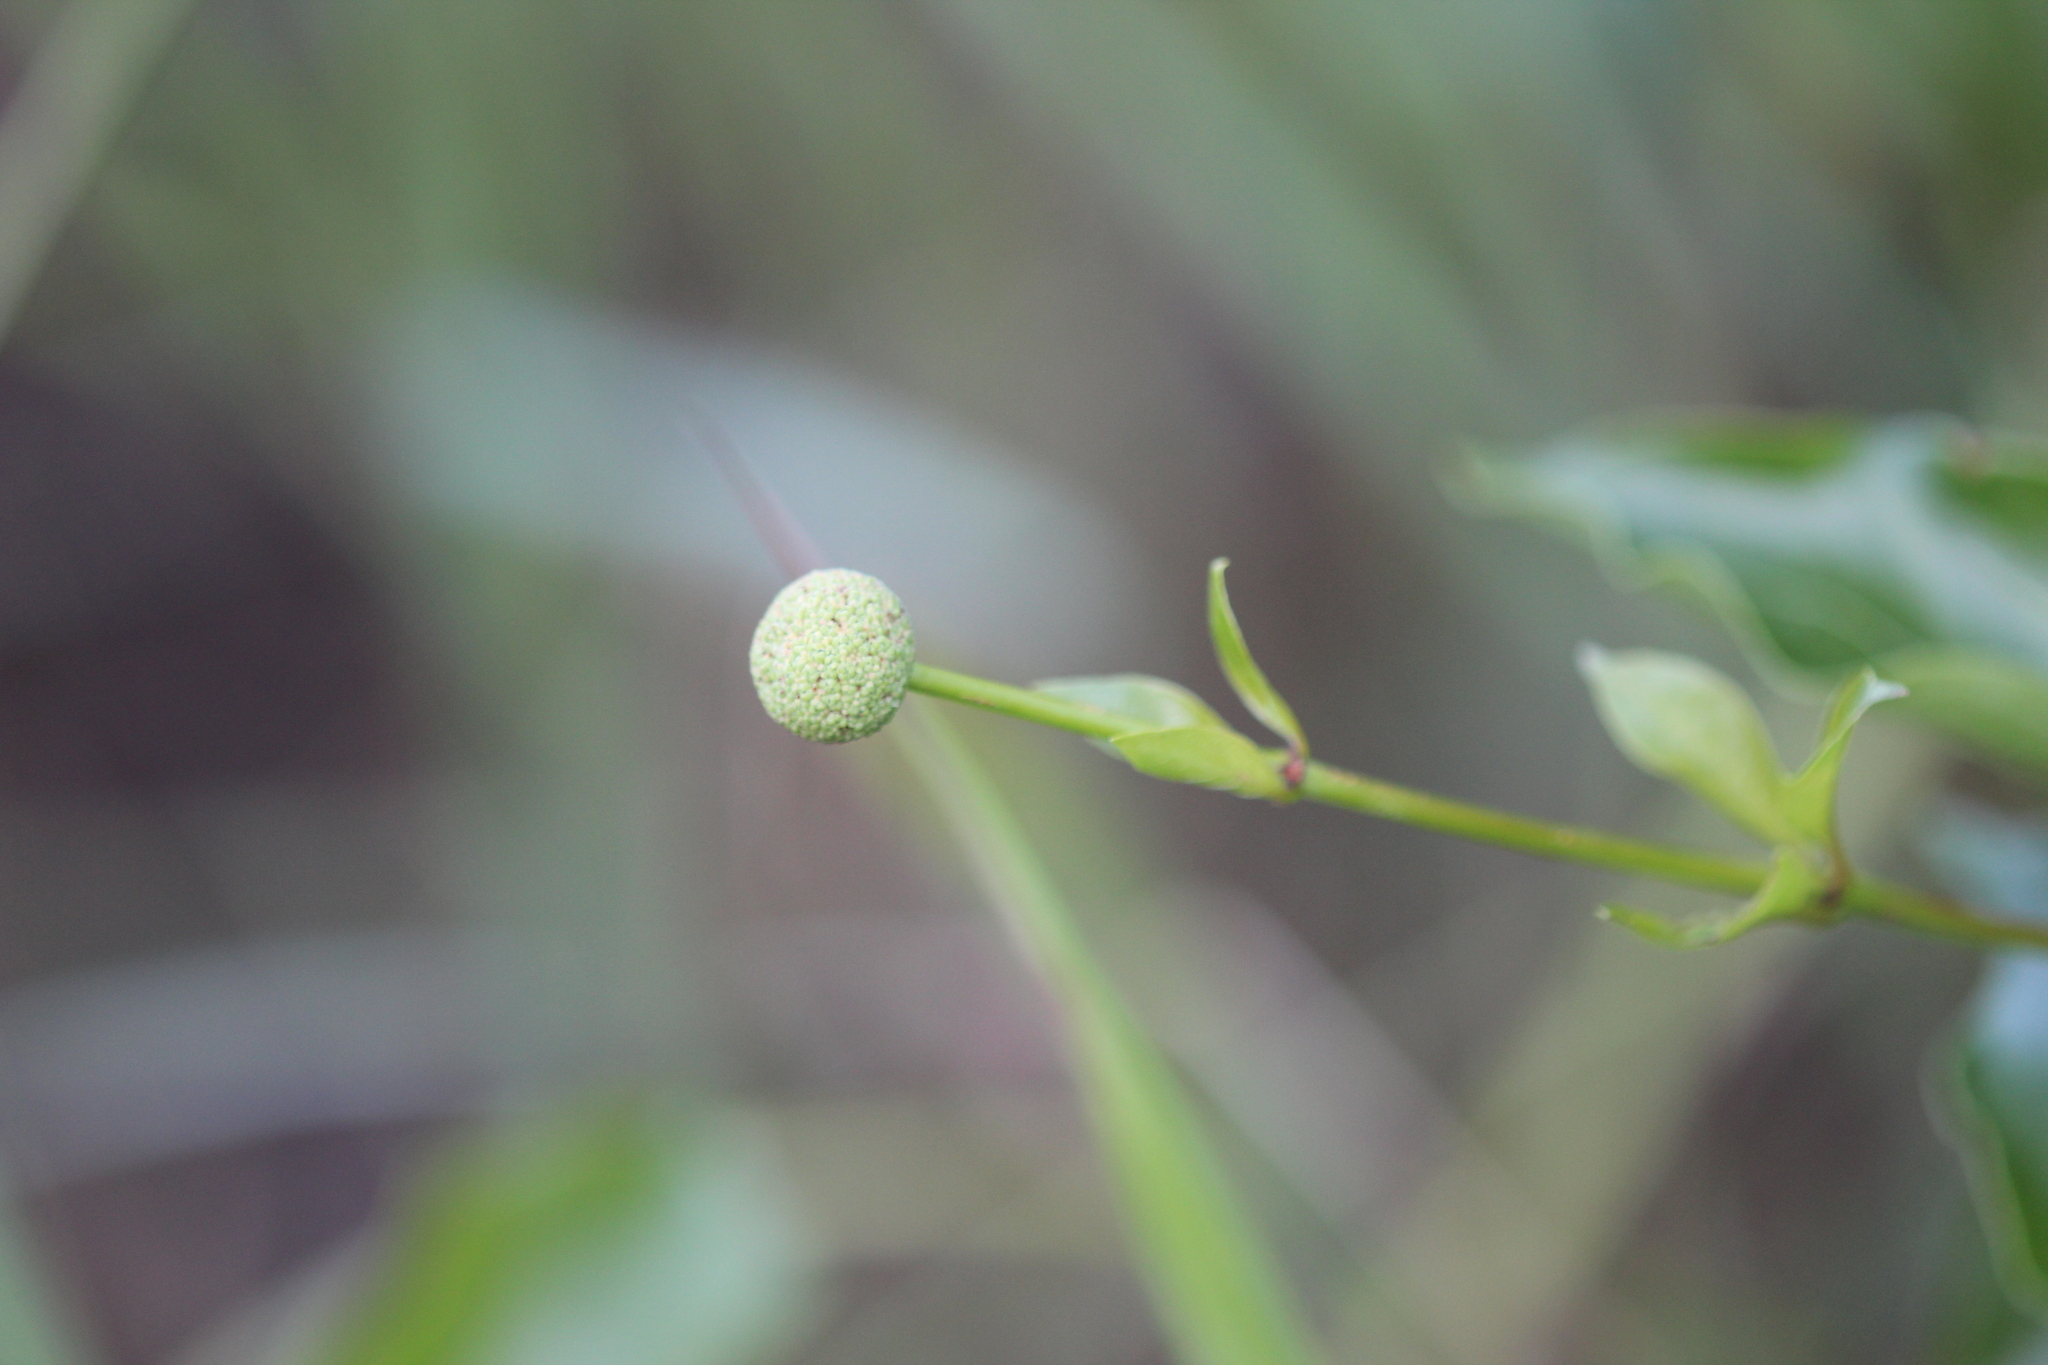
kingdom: Plantae
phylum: Tracheophyta
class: Magnoliopsida
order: Gentianales
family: Rubiaceae
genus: Cephalanthus
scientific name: Cephalanthus occidentalis
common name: Button-willow
